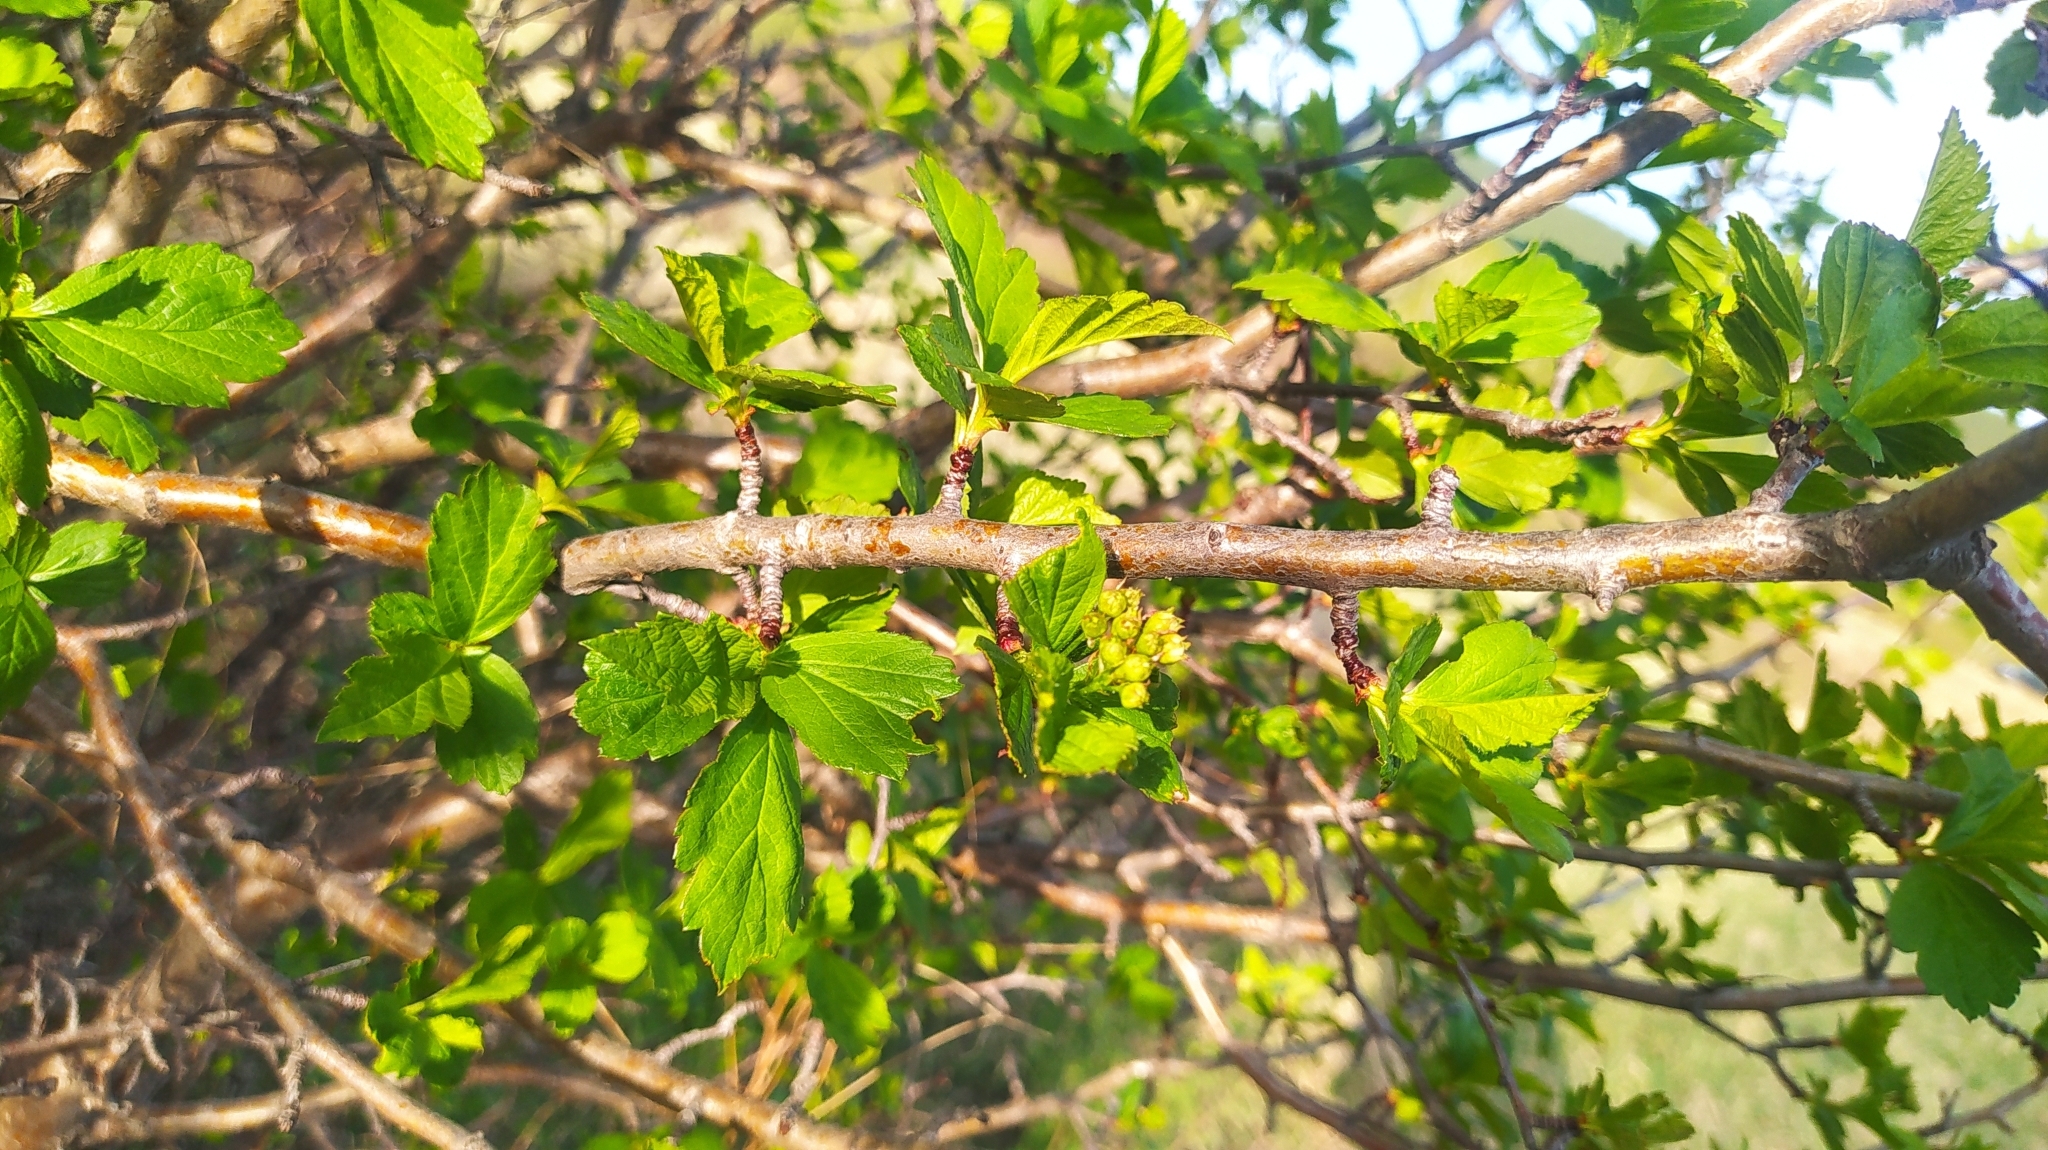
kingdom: Plantae
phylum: Tracheophyta
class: Magnoliopsida
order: Rosales
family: Rosaceae
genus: Crataegus
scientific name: Crataegus sanguinea
